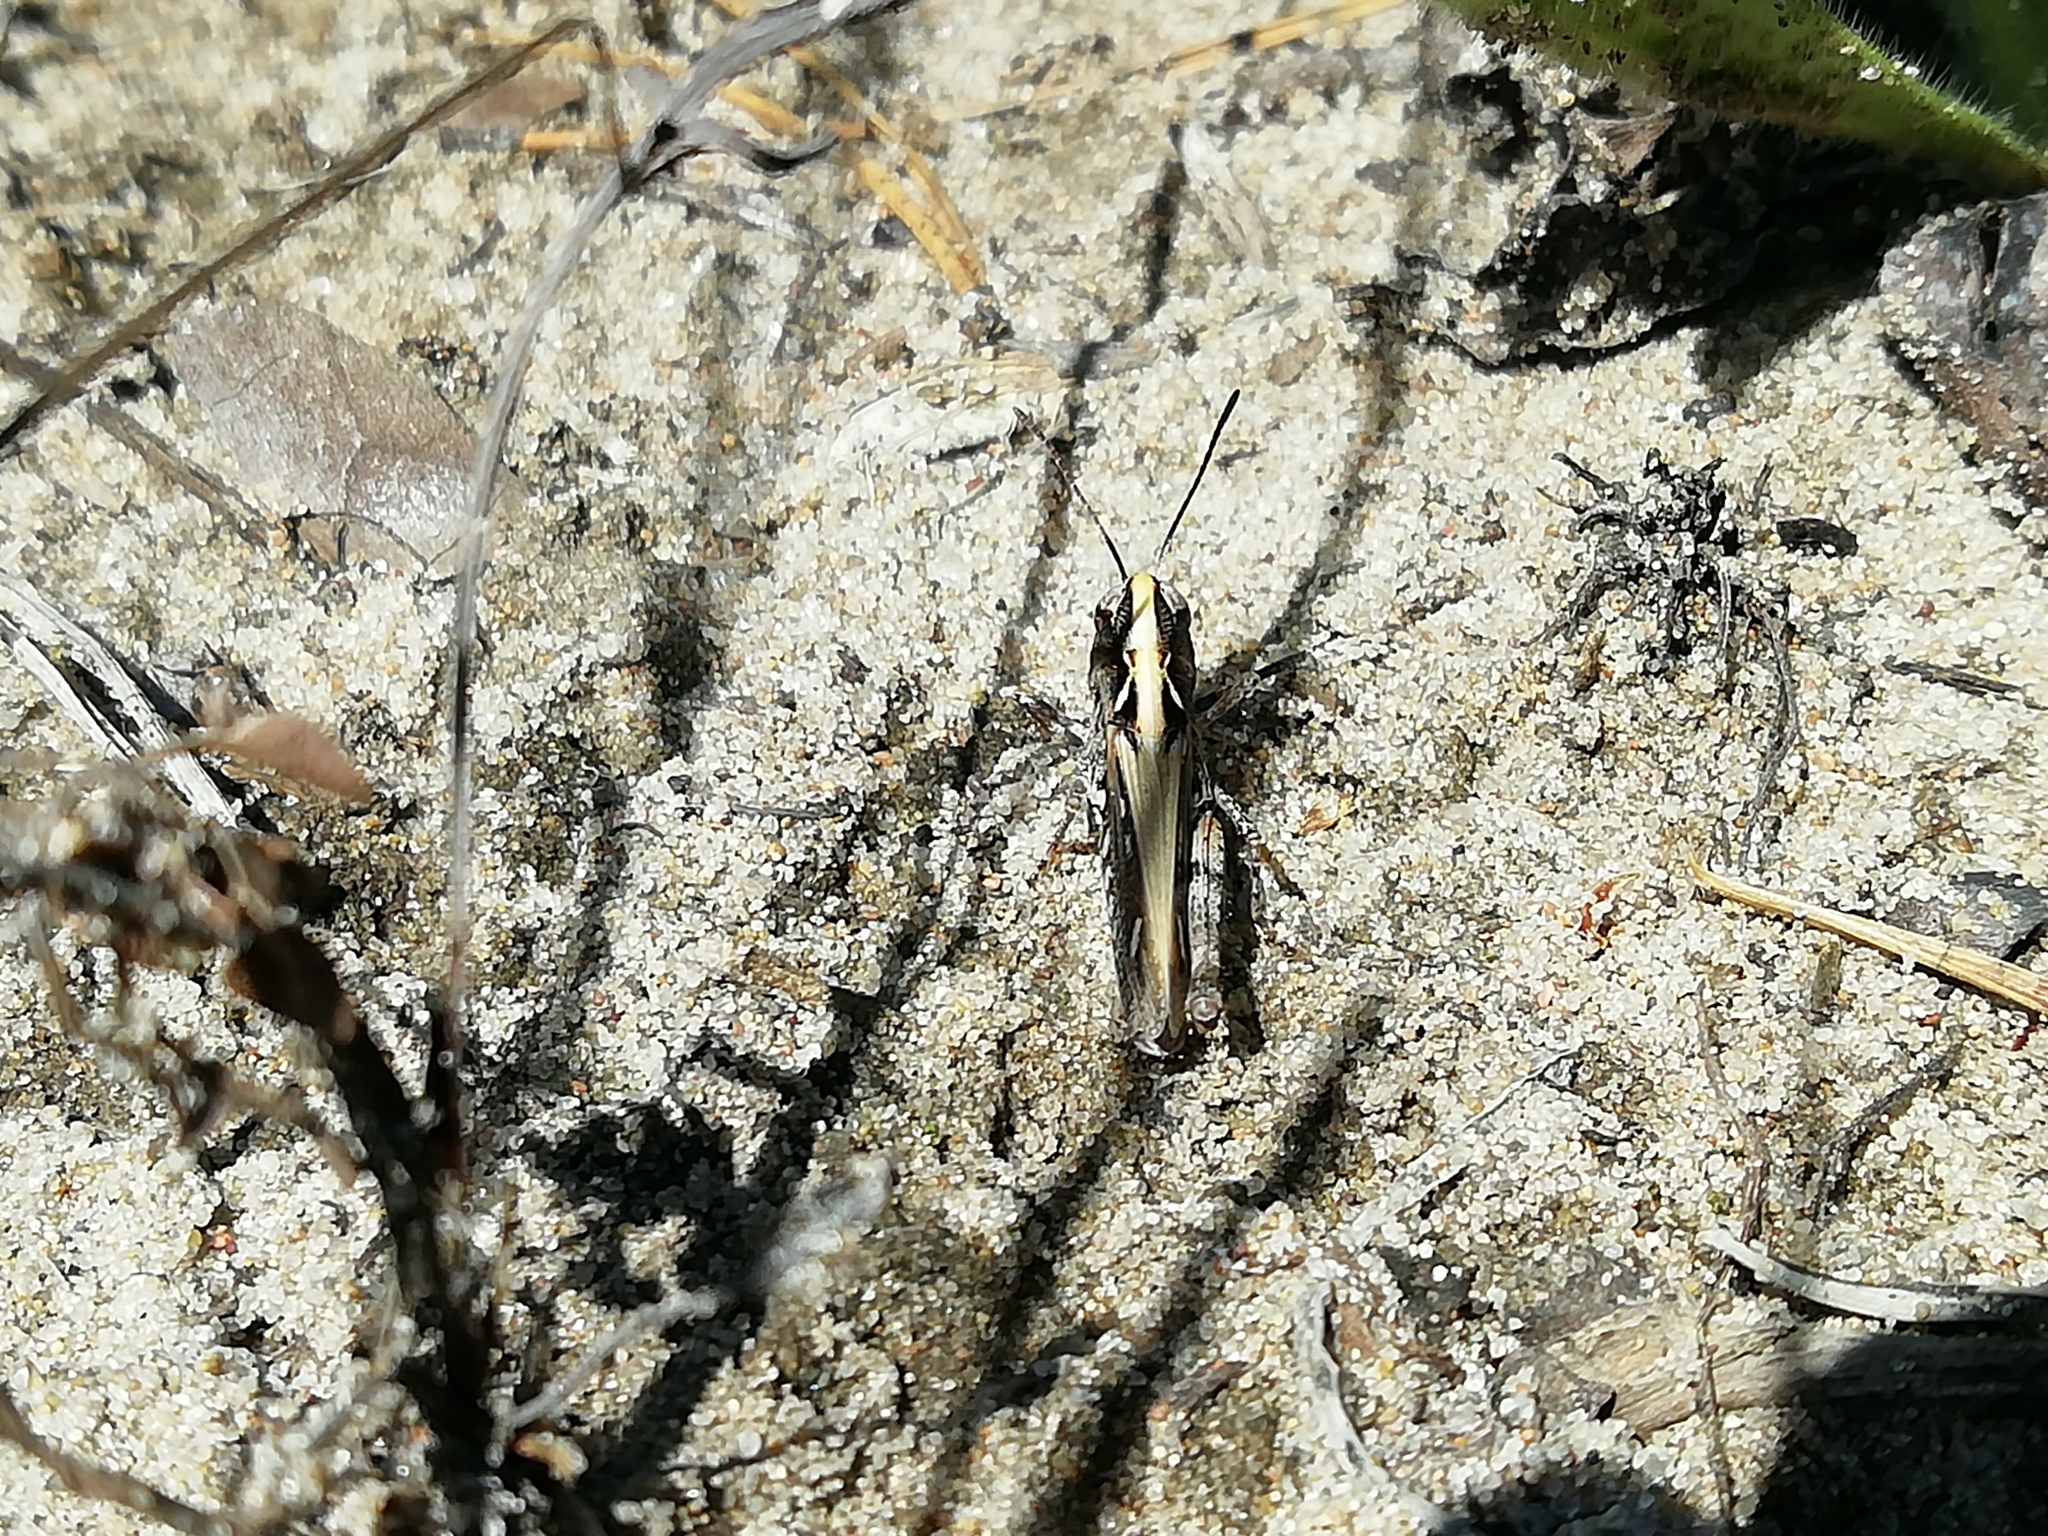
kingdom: Animalia
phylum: Arthropoda
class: Insecta
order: Orthoptera
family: Acrididae
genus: Myrmeleotettix
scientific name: Myrmeleotettix maculatus
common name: Mottled grasshopper
